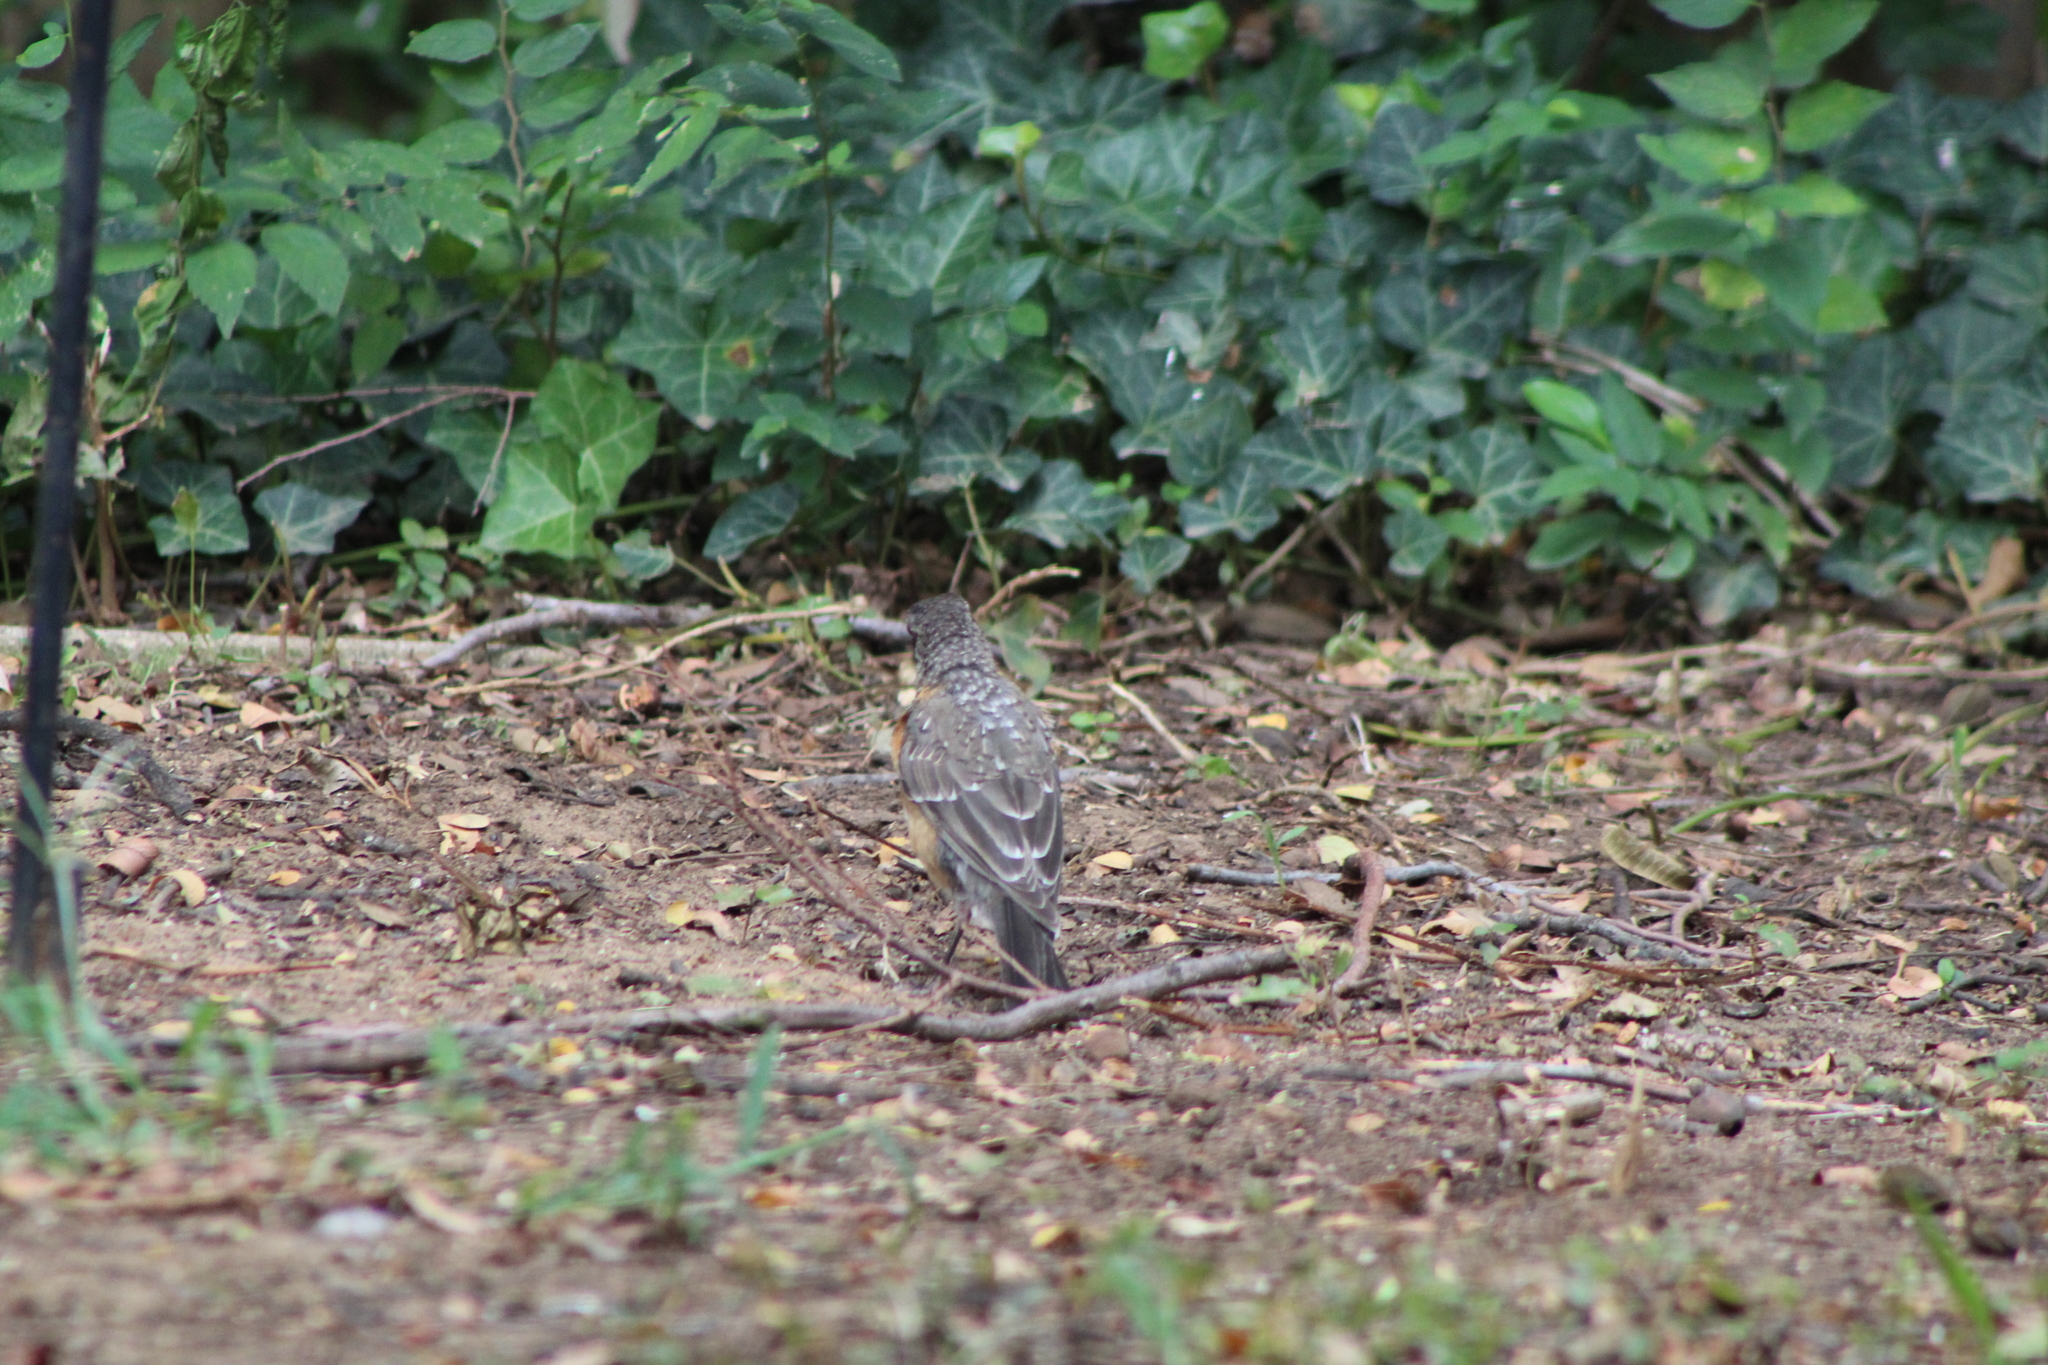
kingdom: Animalia
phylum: Chordata
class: Aves
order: Passeriformes
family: Turdidae
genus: Turdus
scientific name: Turdus migratorius
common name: American robin
